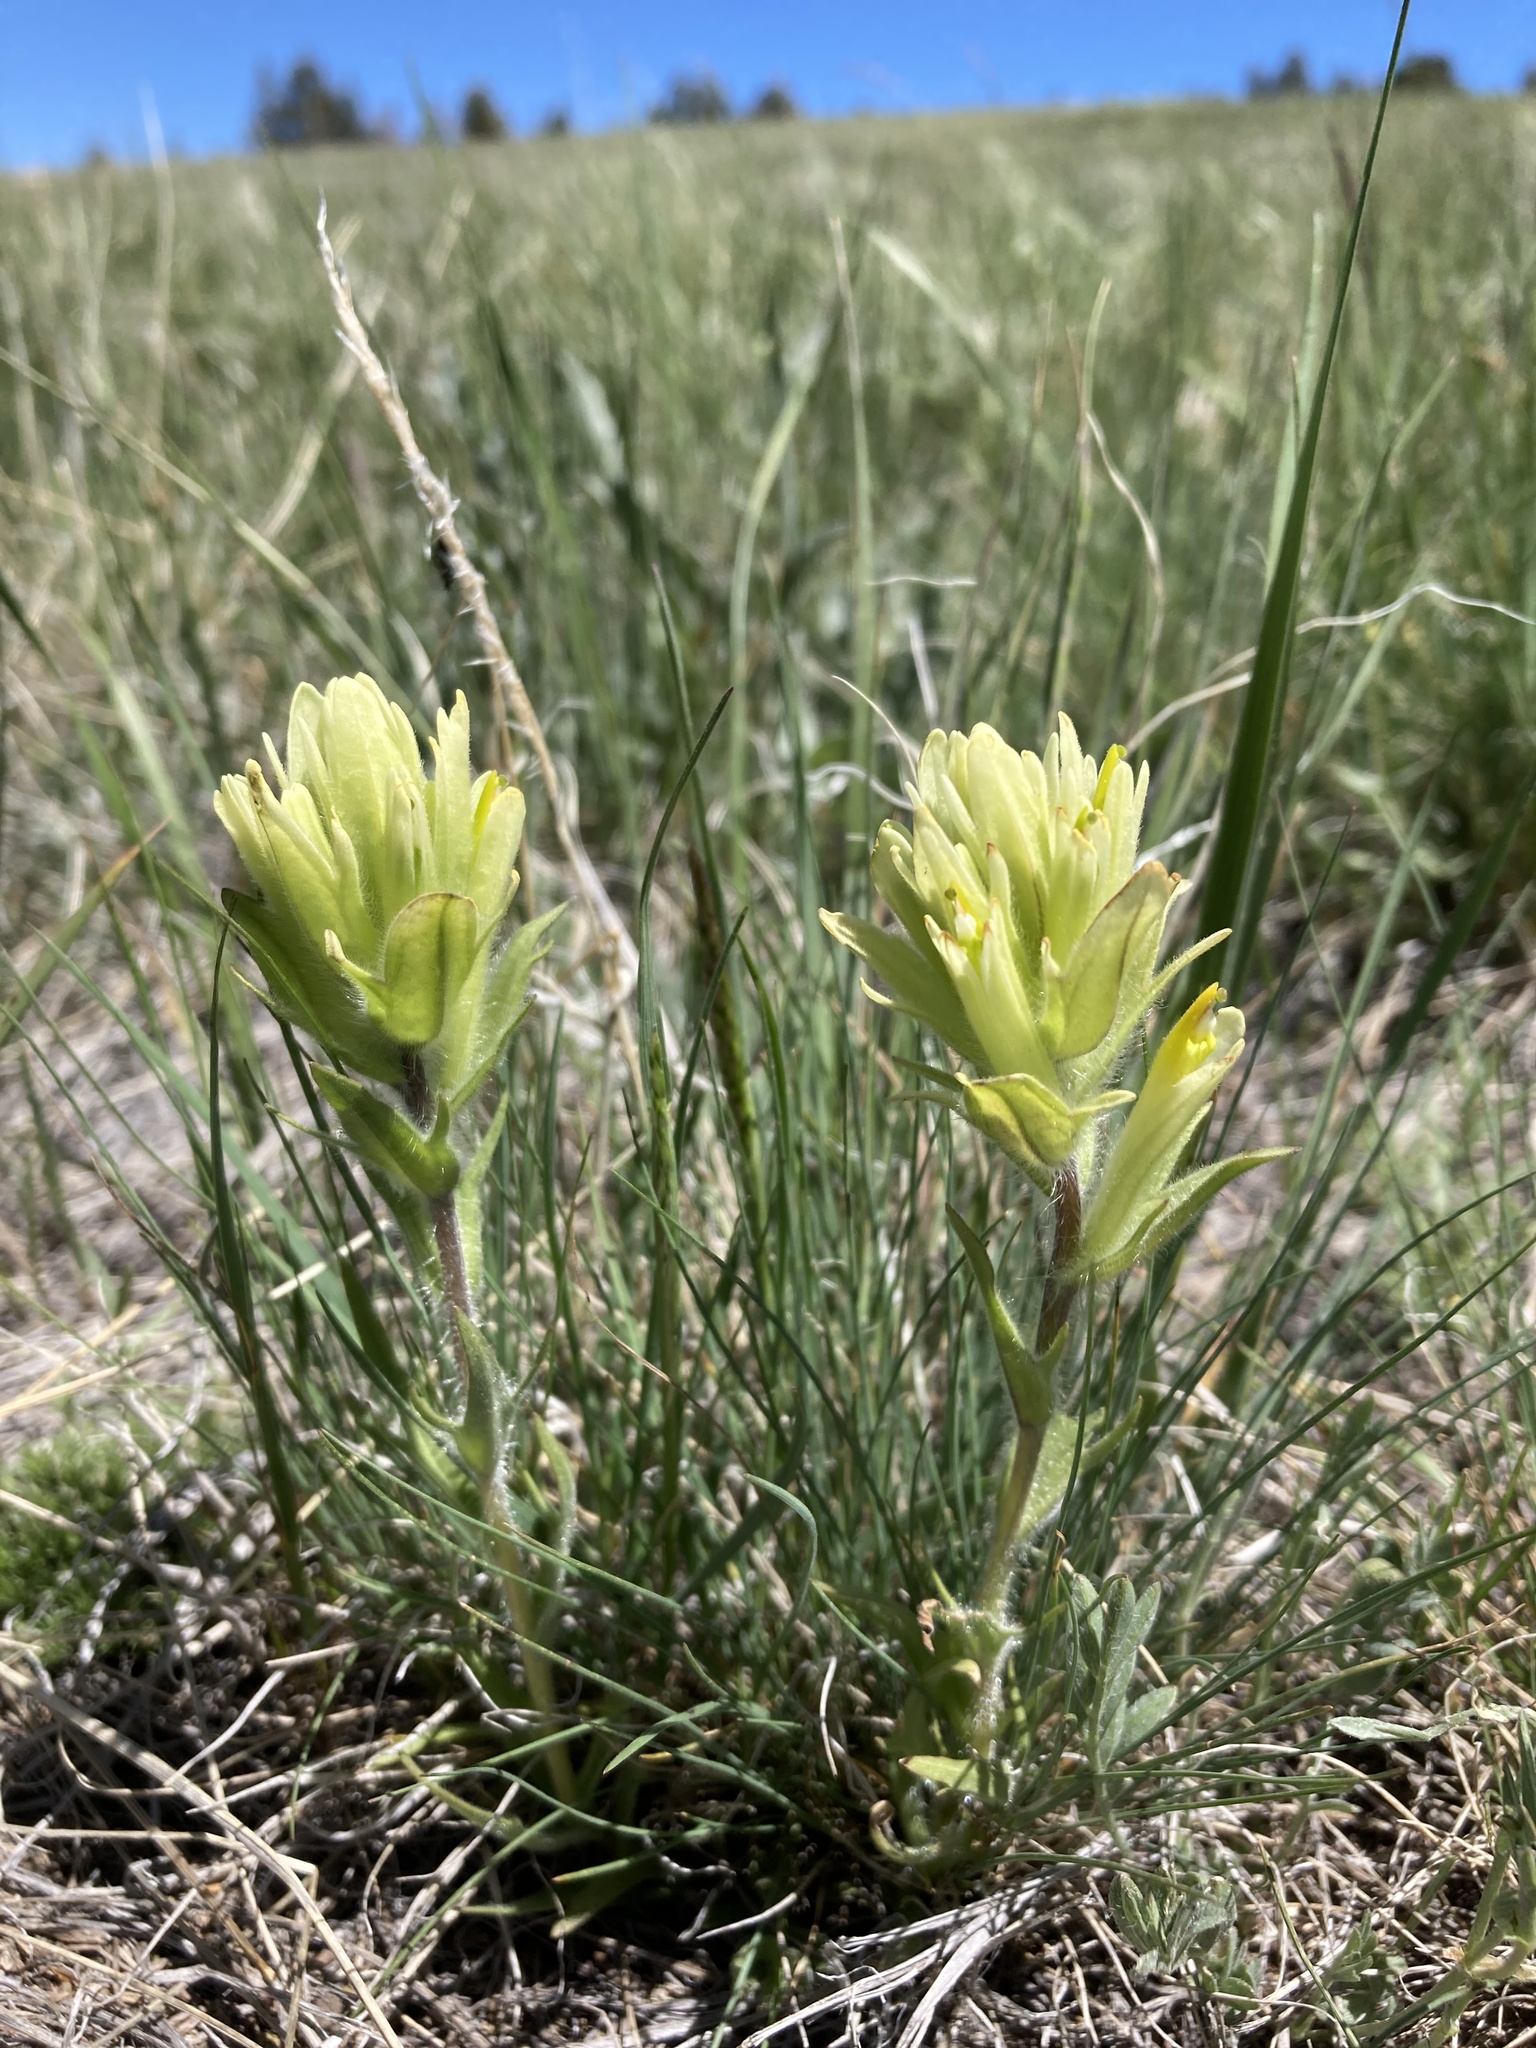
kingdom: Plantae
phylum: Tracheophyta
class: Magnoliopsida
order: Lamiales
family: Orobanchaceae
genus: Castilleja
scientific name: Castilleja pulchella
